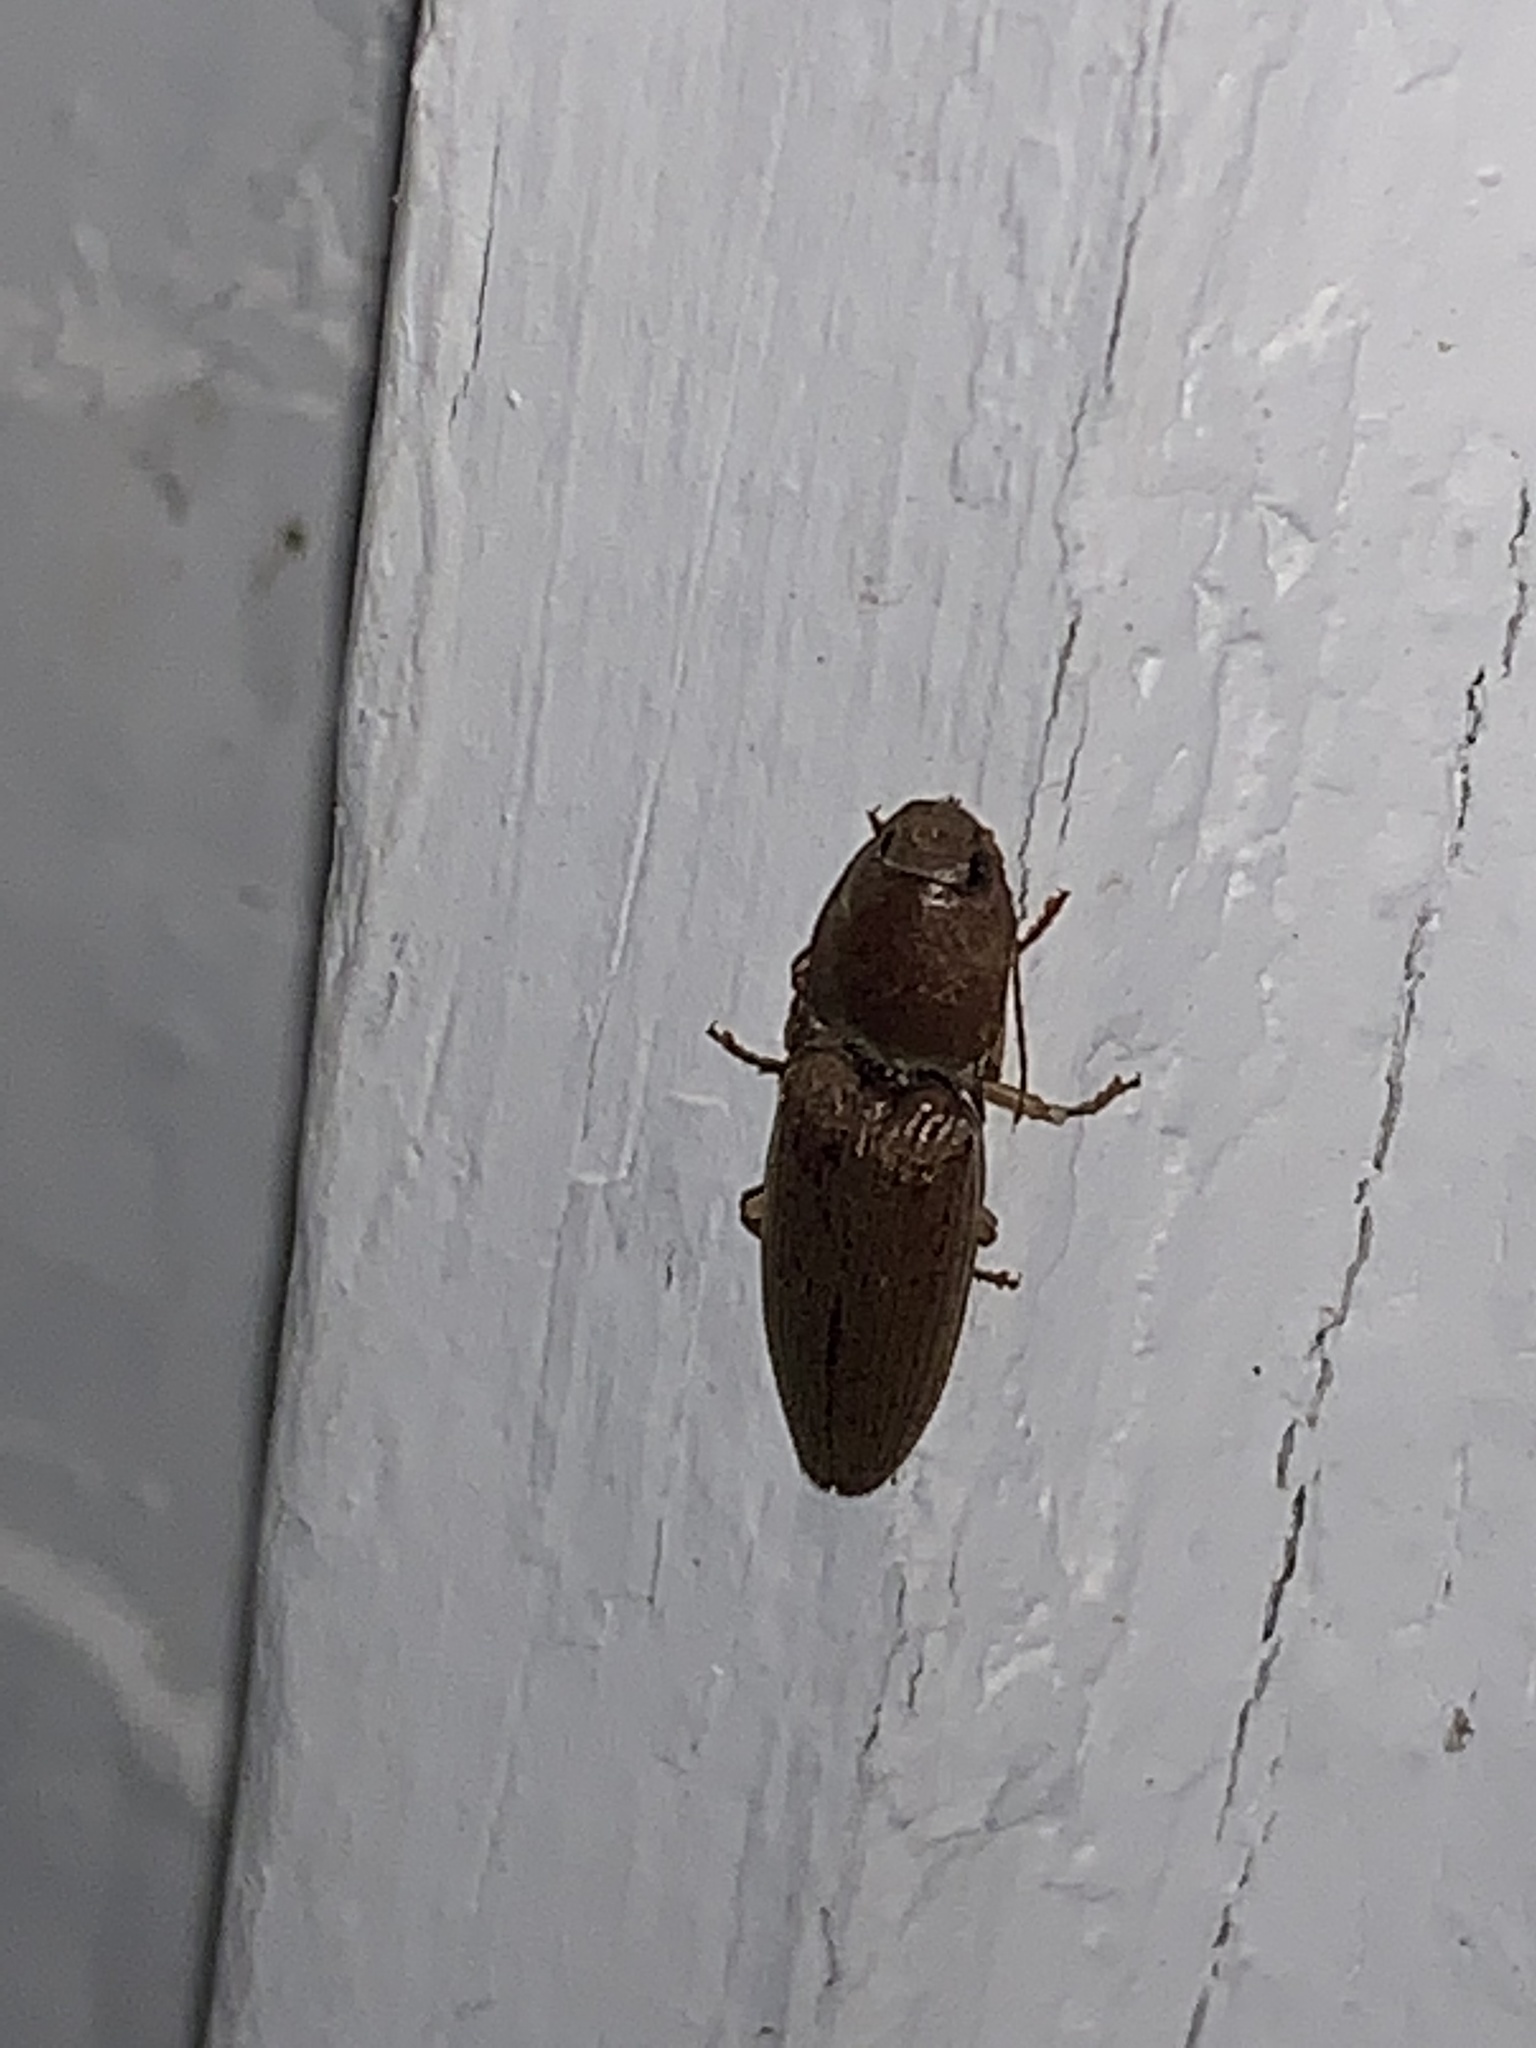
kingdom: Animalia
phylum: Arthropoda
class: Insecta
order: Coleoptera
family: Elateridae
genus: Monocrepidius
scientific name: Monocrepidius lividus
